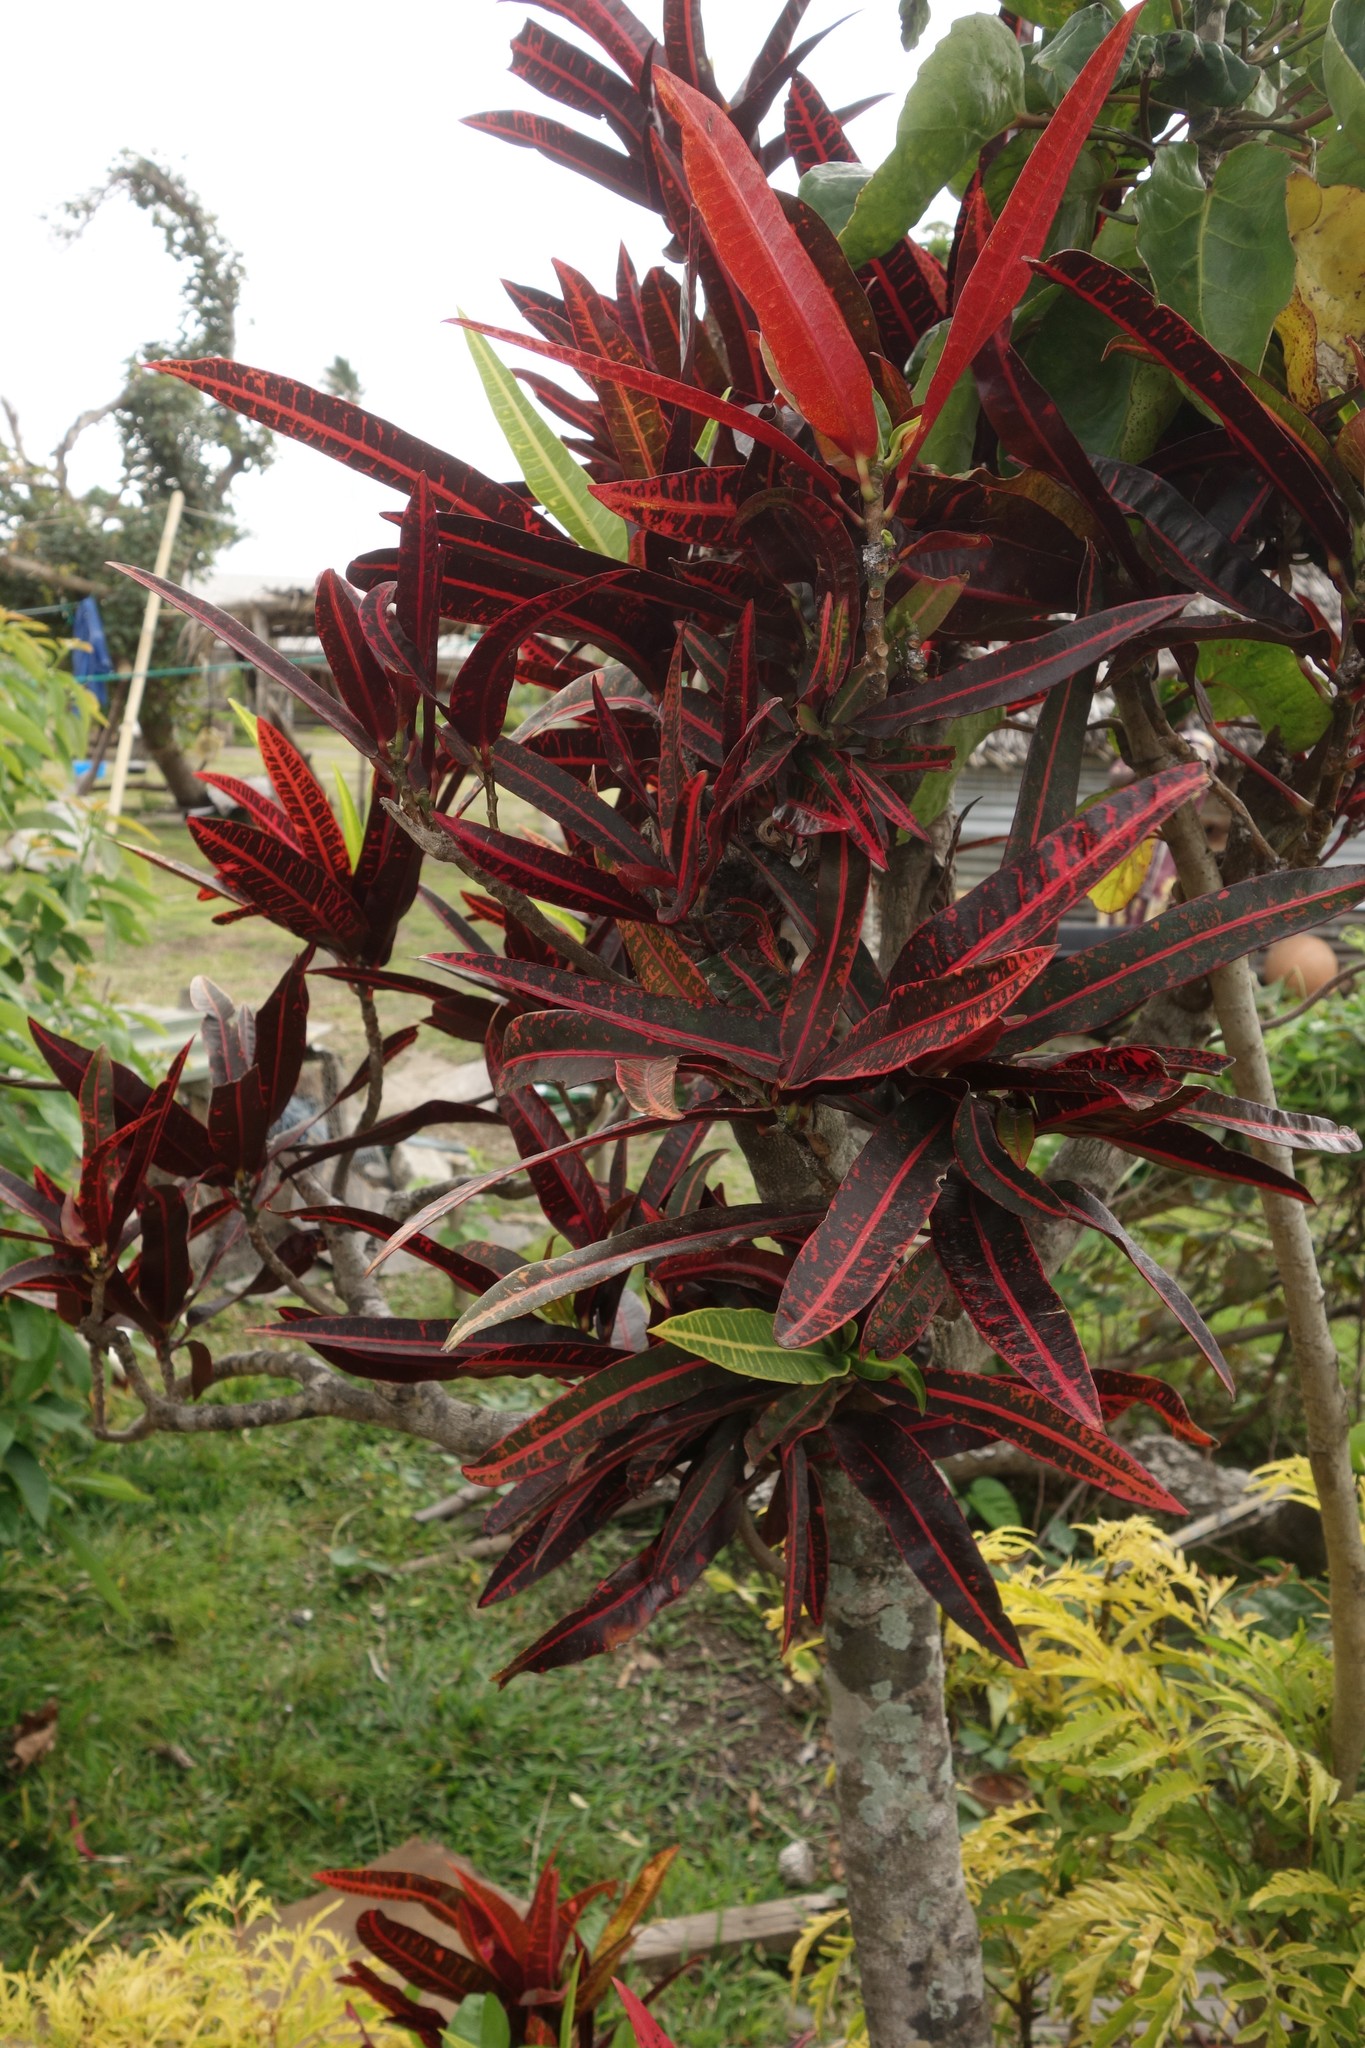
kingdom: Plantae
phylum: Tracheophyta
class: Magnoliopsida
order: Malpighiales
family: Euphorbiaceae
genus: Codiaeum
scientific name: Codiaeum variegatum
